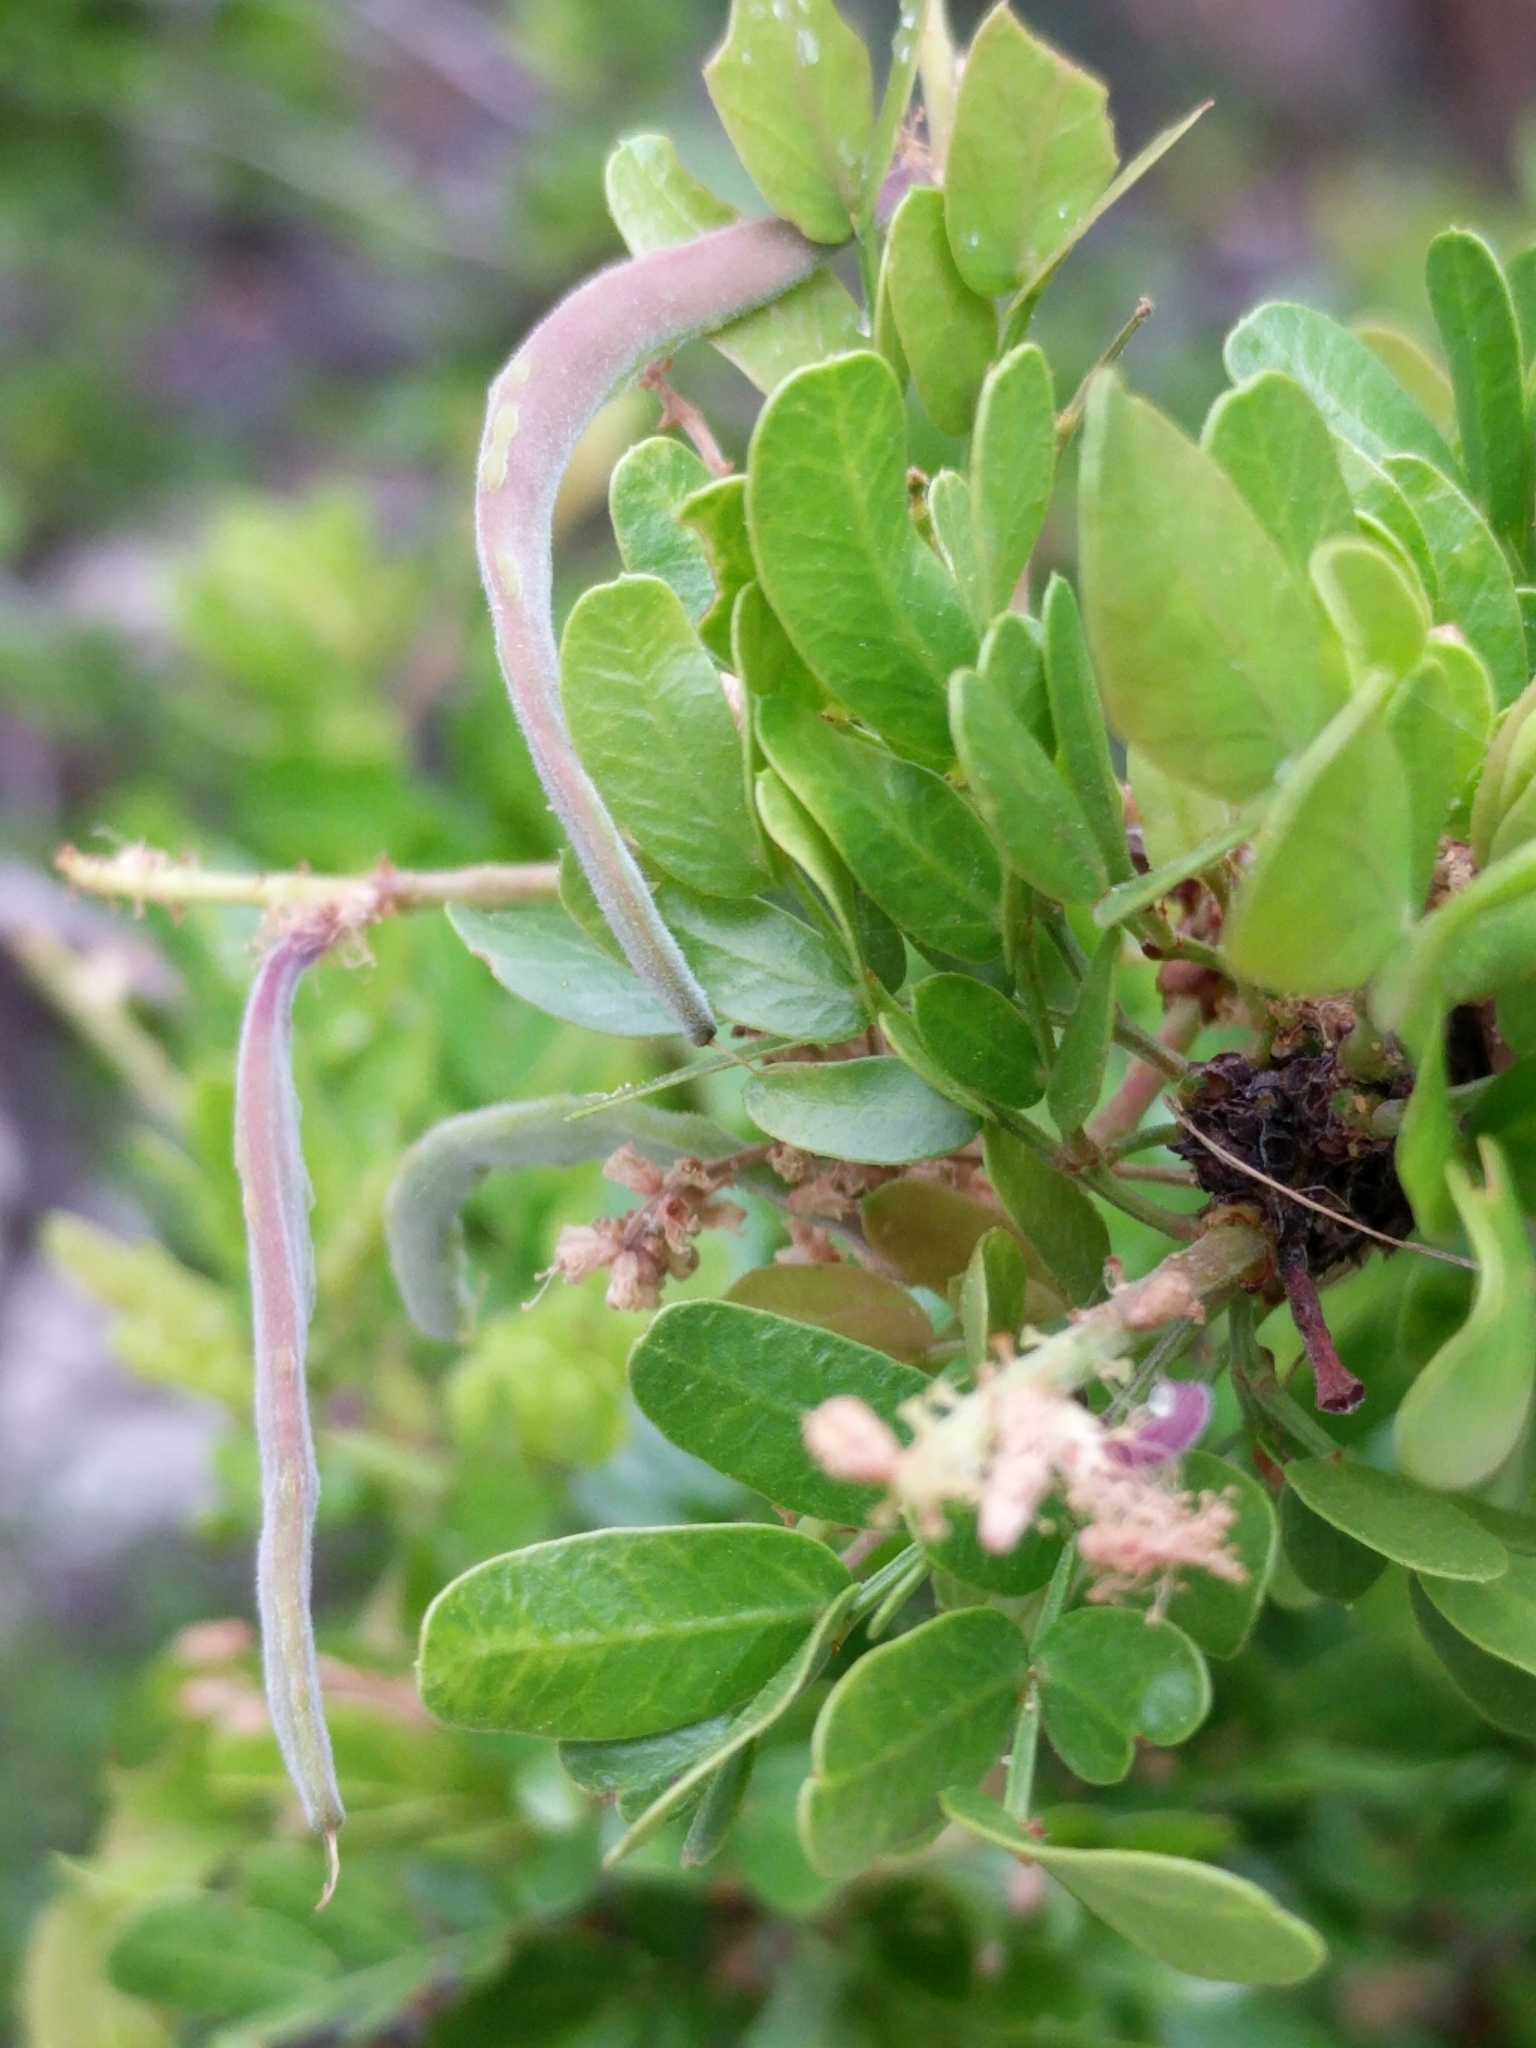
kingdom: Plantae
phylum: Tracheophyta
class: Magnoliopsida
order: Fabales
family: Fabaceae
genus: Vachellia
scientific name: Vachellia rigidula
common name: Blackbrush
